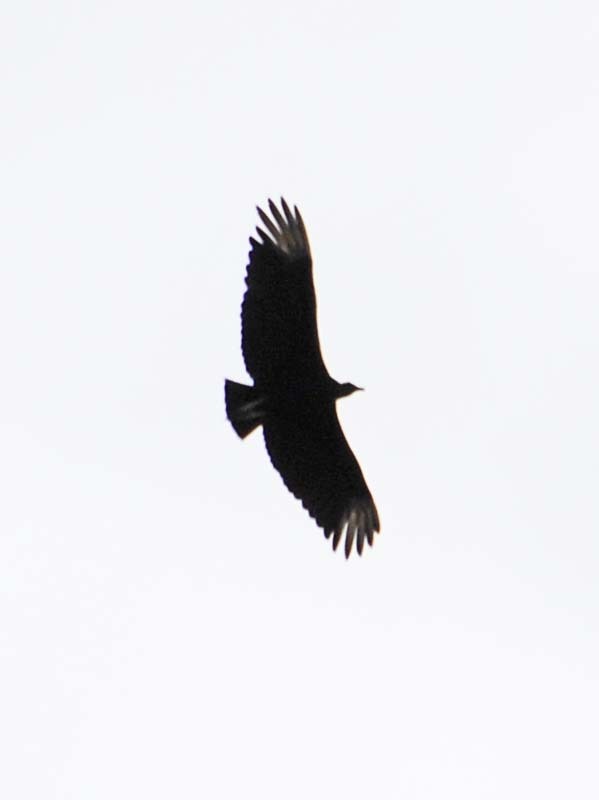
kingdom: Animalia
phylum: Chordata
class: Aves
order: Accipitriformes
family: Cathartidae
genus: Coragyps
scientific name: Coragyps atratus
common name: Black vulture
